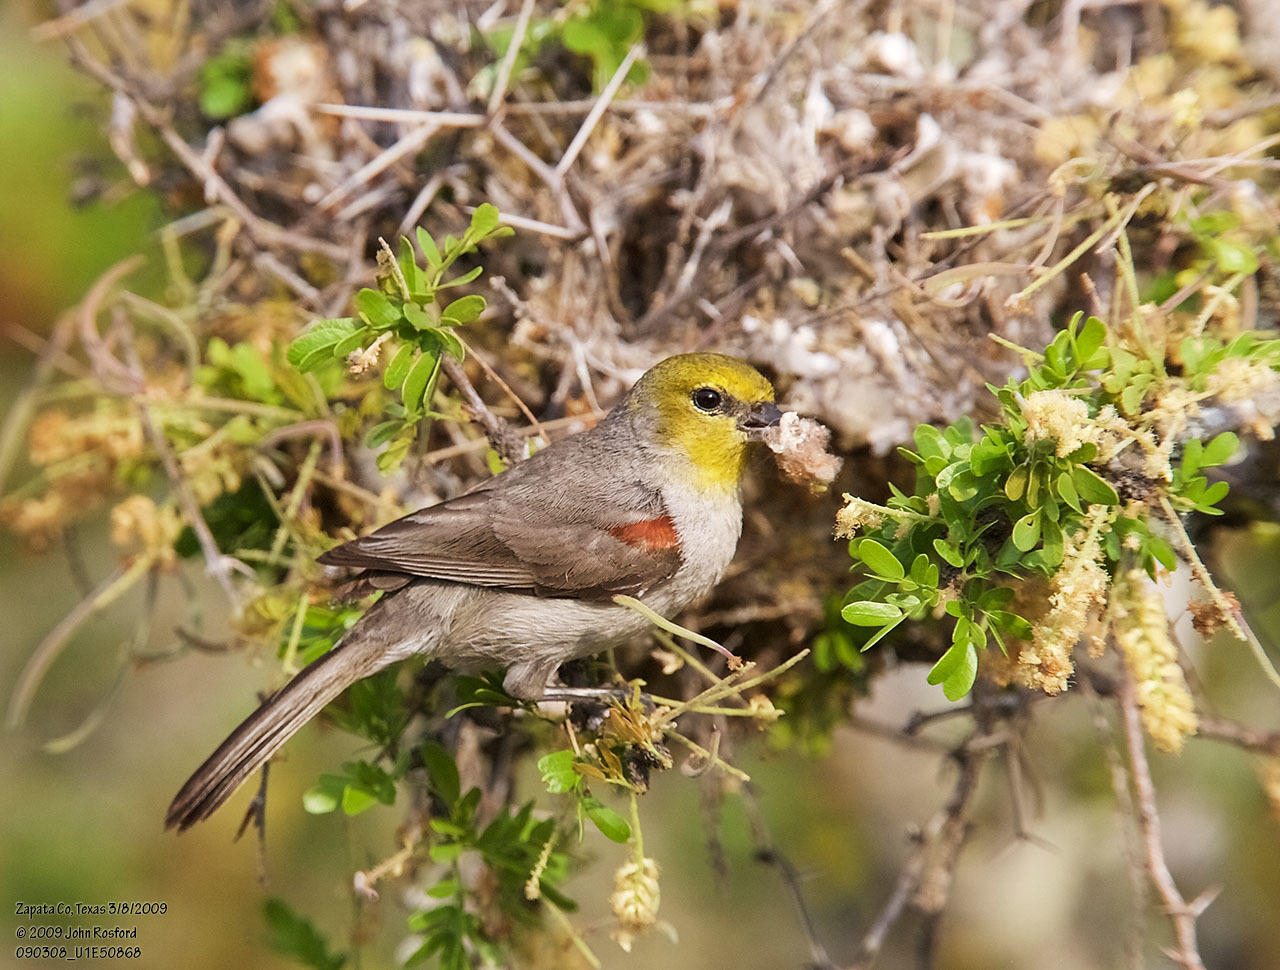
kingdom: Animalia
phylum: Chordata
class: Aves
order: Passeriformes
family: Remizidae
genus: Auriparus
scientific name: Auriparus flaviceps
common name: Verdin
